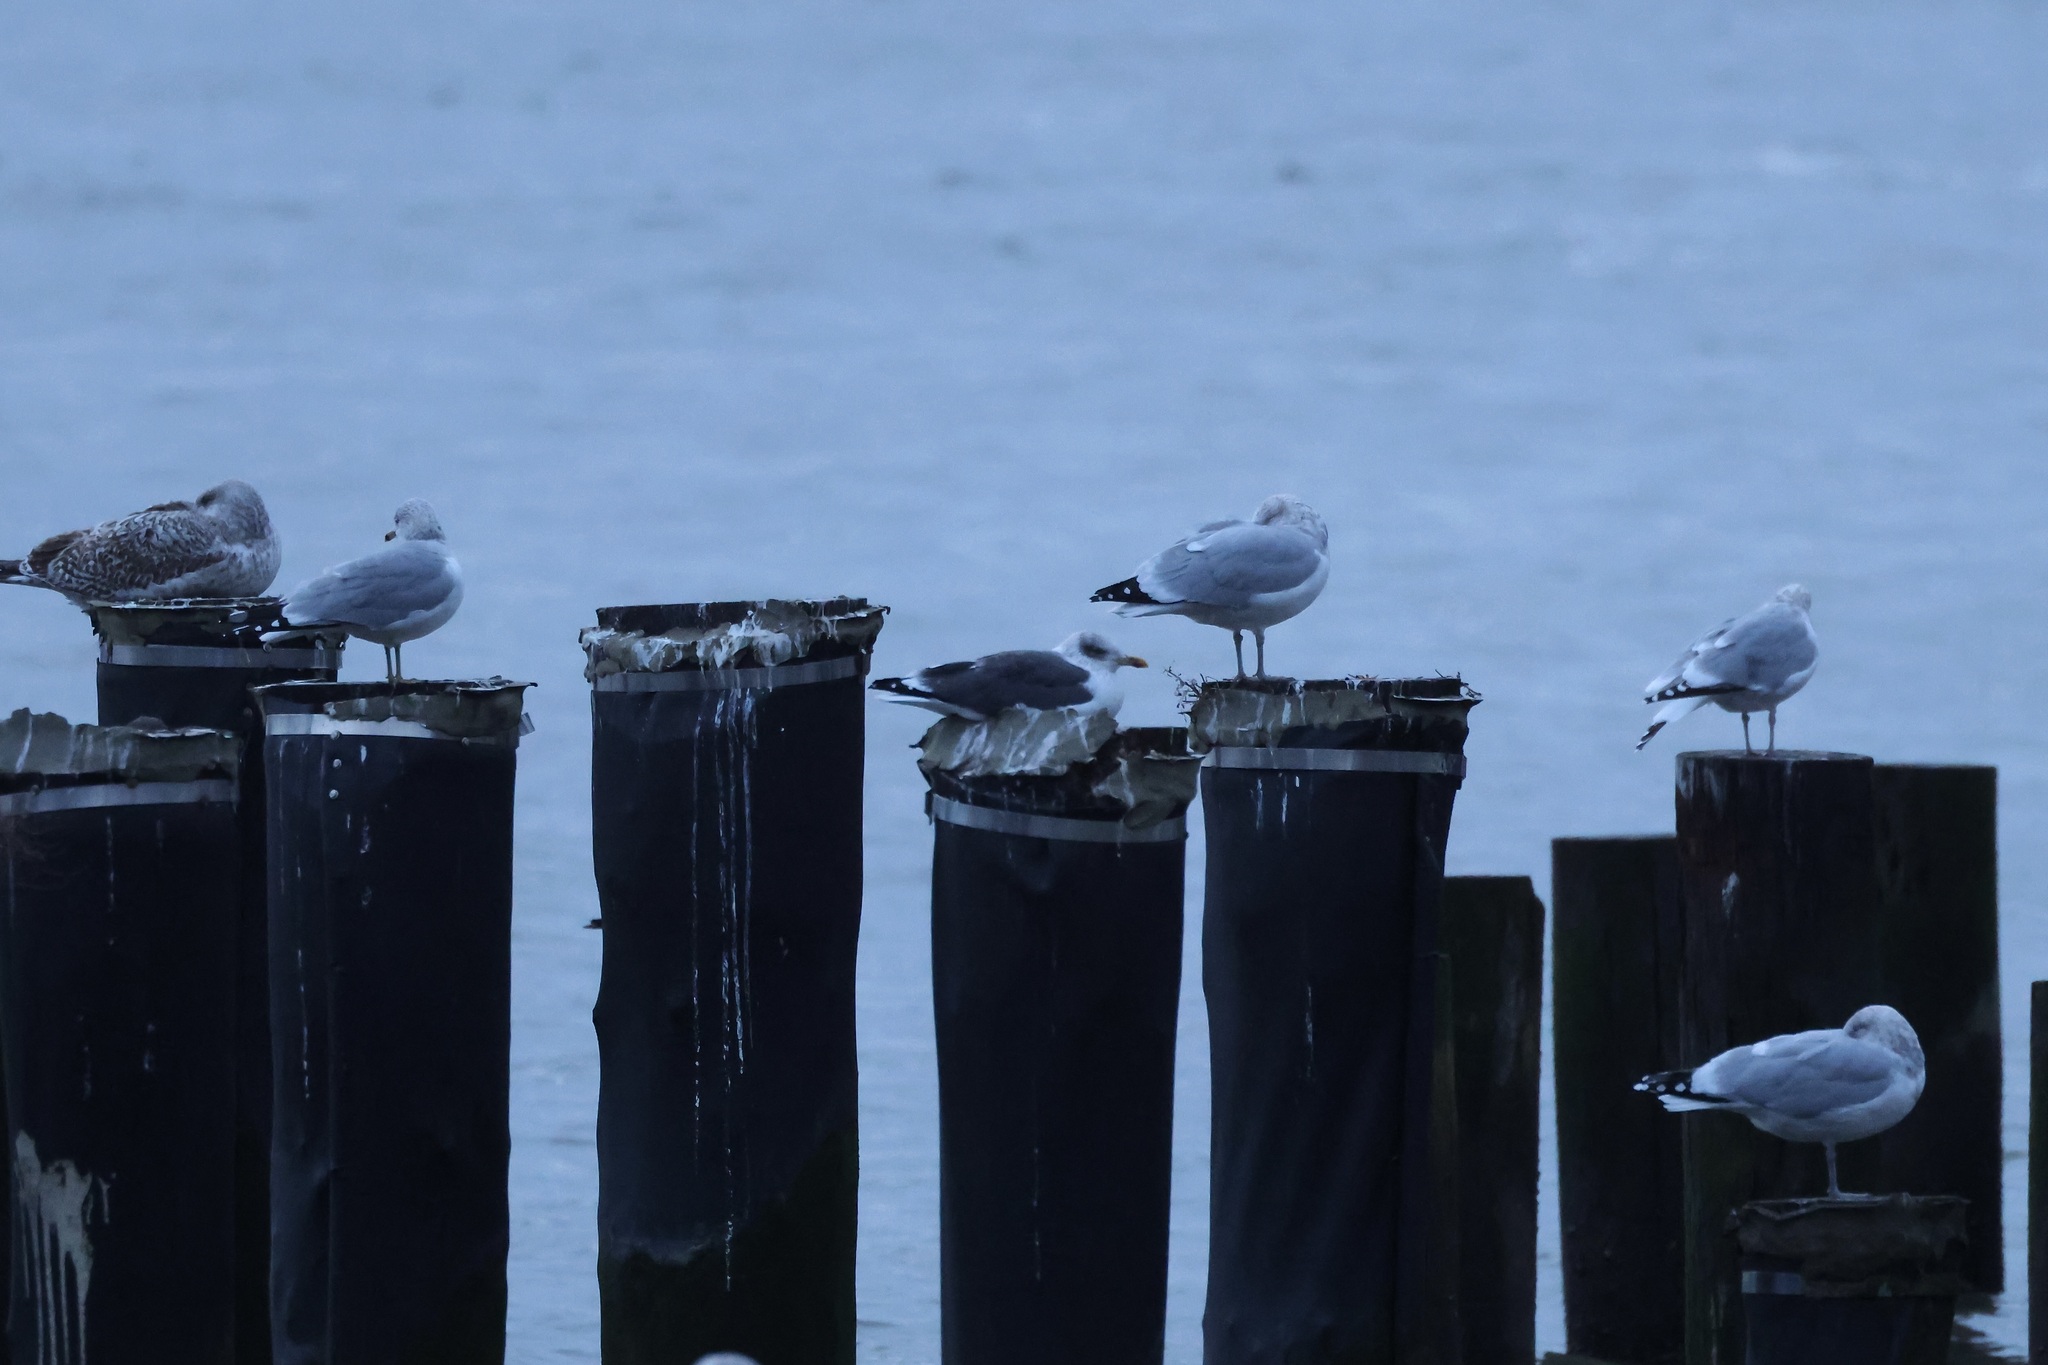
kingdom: Animalia
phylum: Chordata
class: Aves
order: Charadriiformes
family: Laridae
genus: Larus
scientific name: Larus fuscus
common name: Lesser black-backed gull
